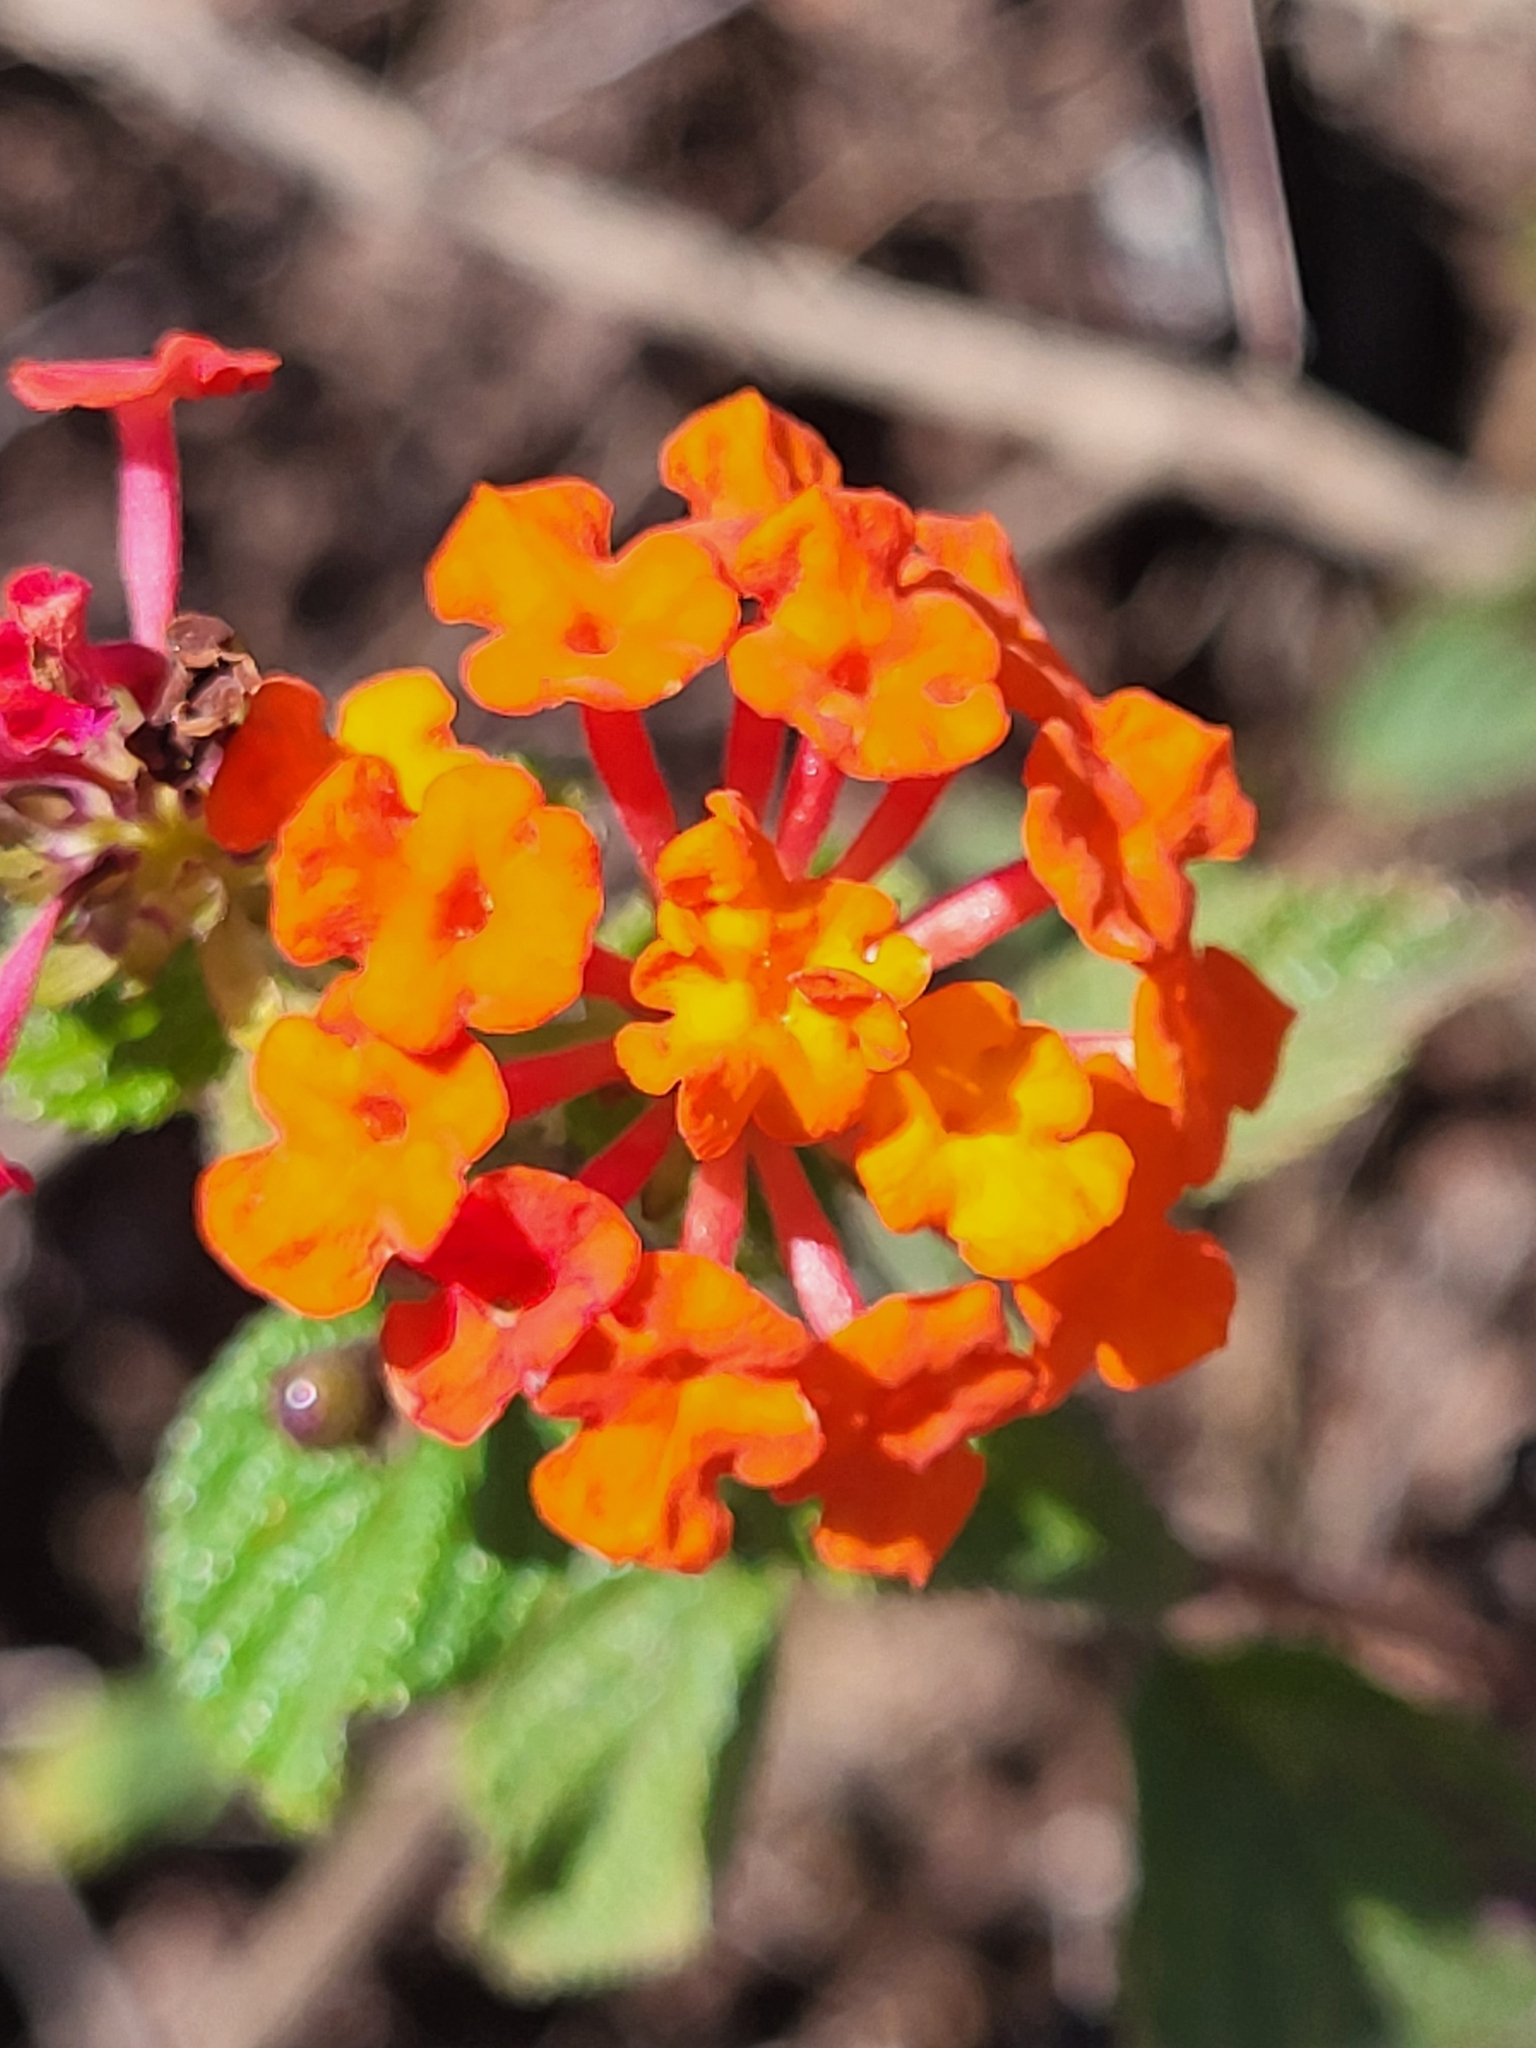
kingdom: Plantae
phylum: Tracheophyta
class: Magnoliopsida
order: Lamiales
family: Verbenaceae
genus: Lantana
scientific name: Lantana camara
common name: Lantana
